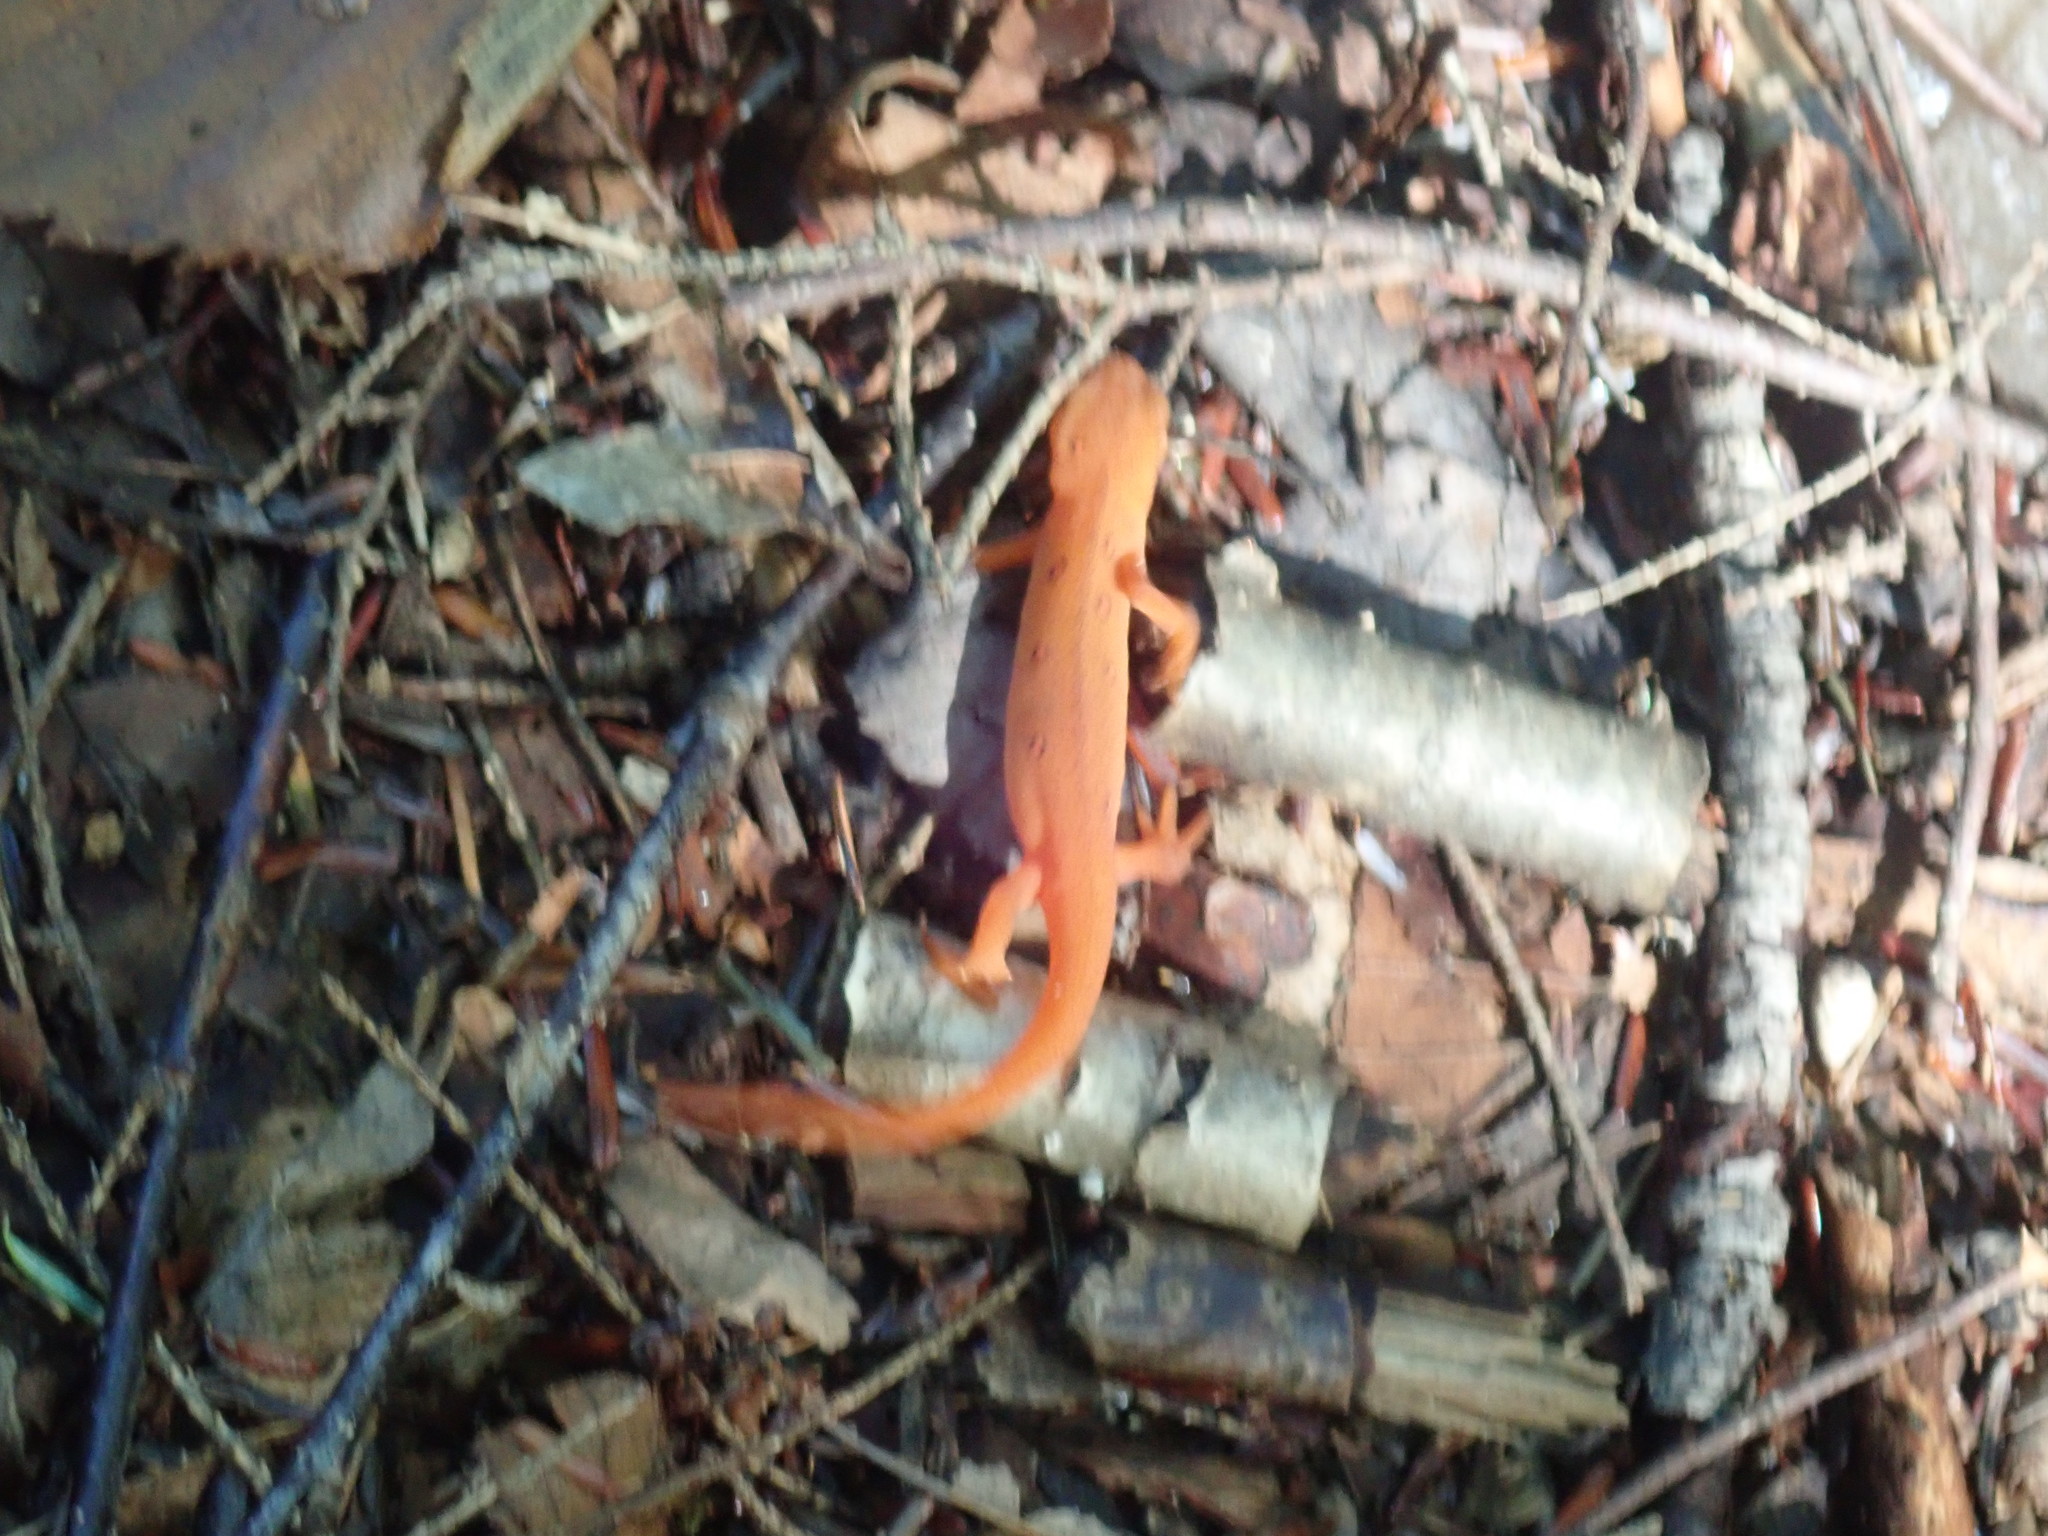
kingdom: Animalia
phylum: Chordata
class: Amphibia
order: Caudata
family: Salamandridae
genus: Notophthalmus
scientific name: Notophthalmus viridescens
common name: Eastern newt
